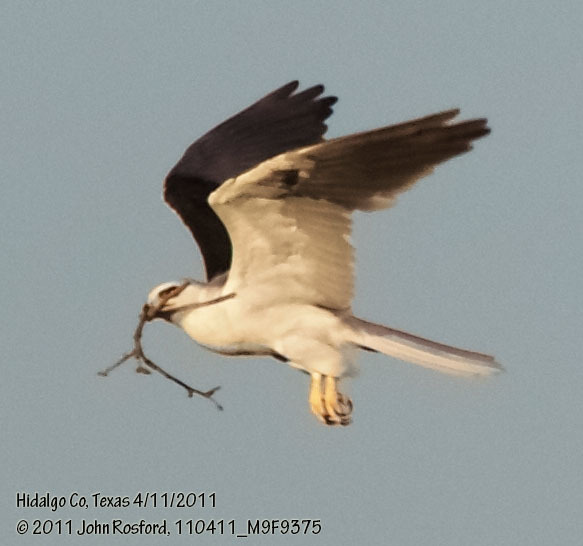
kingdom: Animalia
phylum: Chordata
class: Aves
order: Accipitriformes
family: Accipitridae
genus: Elanus
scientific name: Elanus leucurus
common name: White-tailed kite
